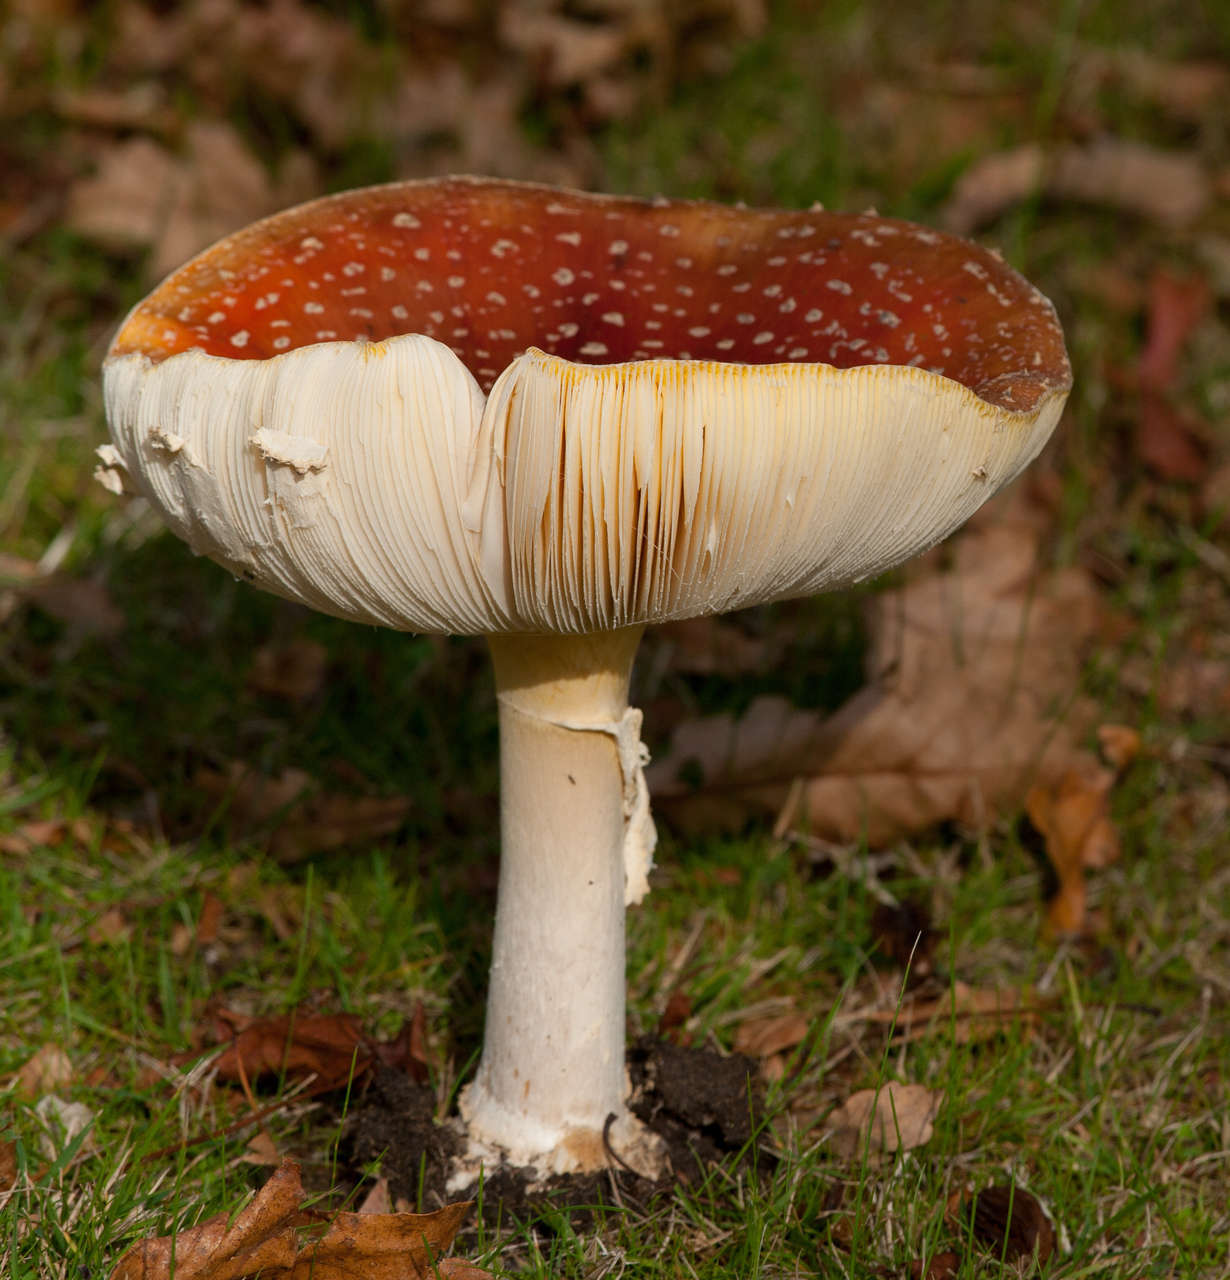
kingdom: Fungi
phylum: Basidiomycota
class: Agaricomycetes
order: Agaricales
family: Amanitaceae
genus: Amanita
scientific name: Amanita muscaria
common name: Fly agaric
